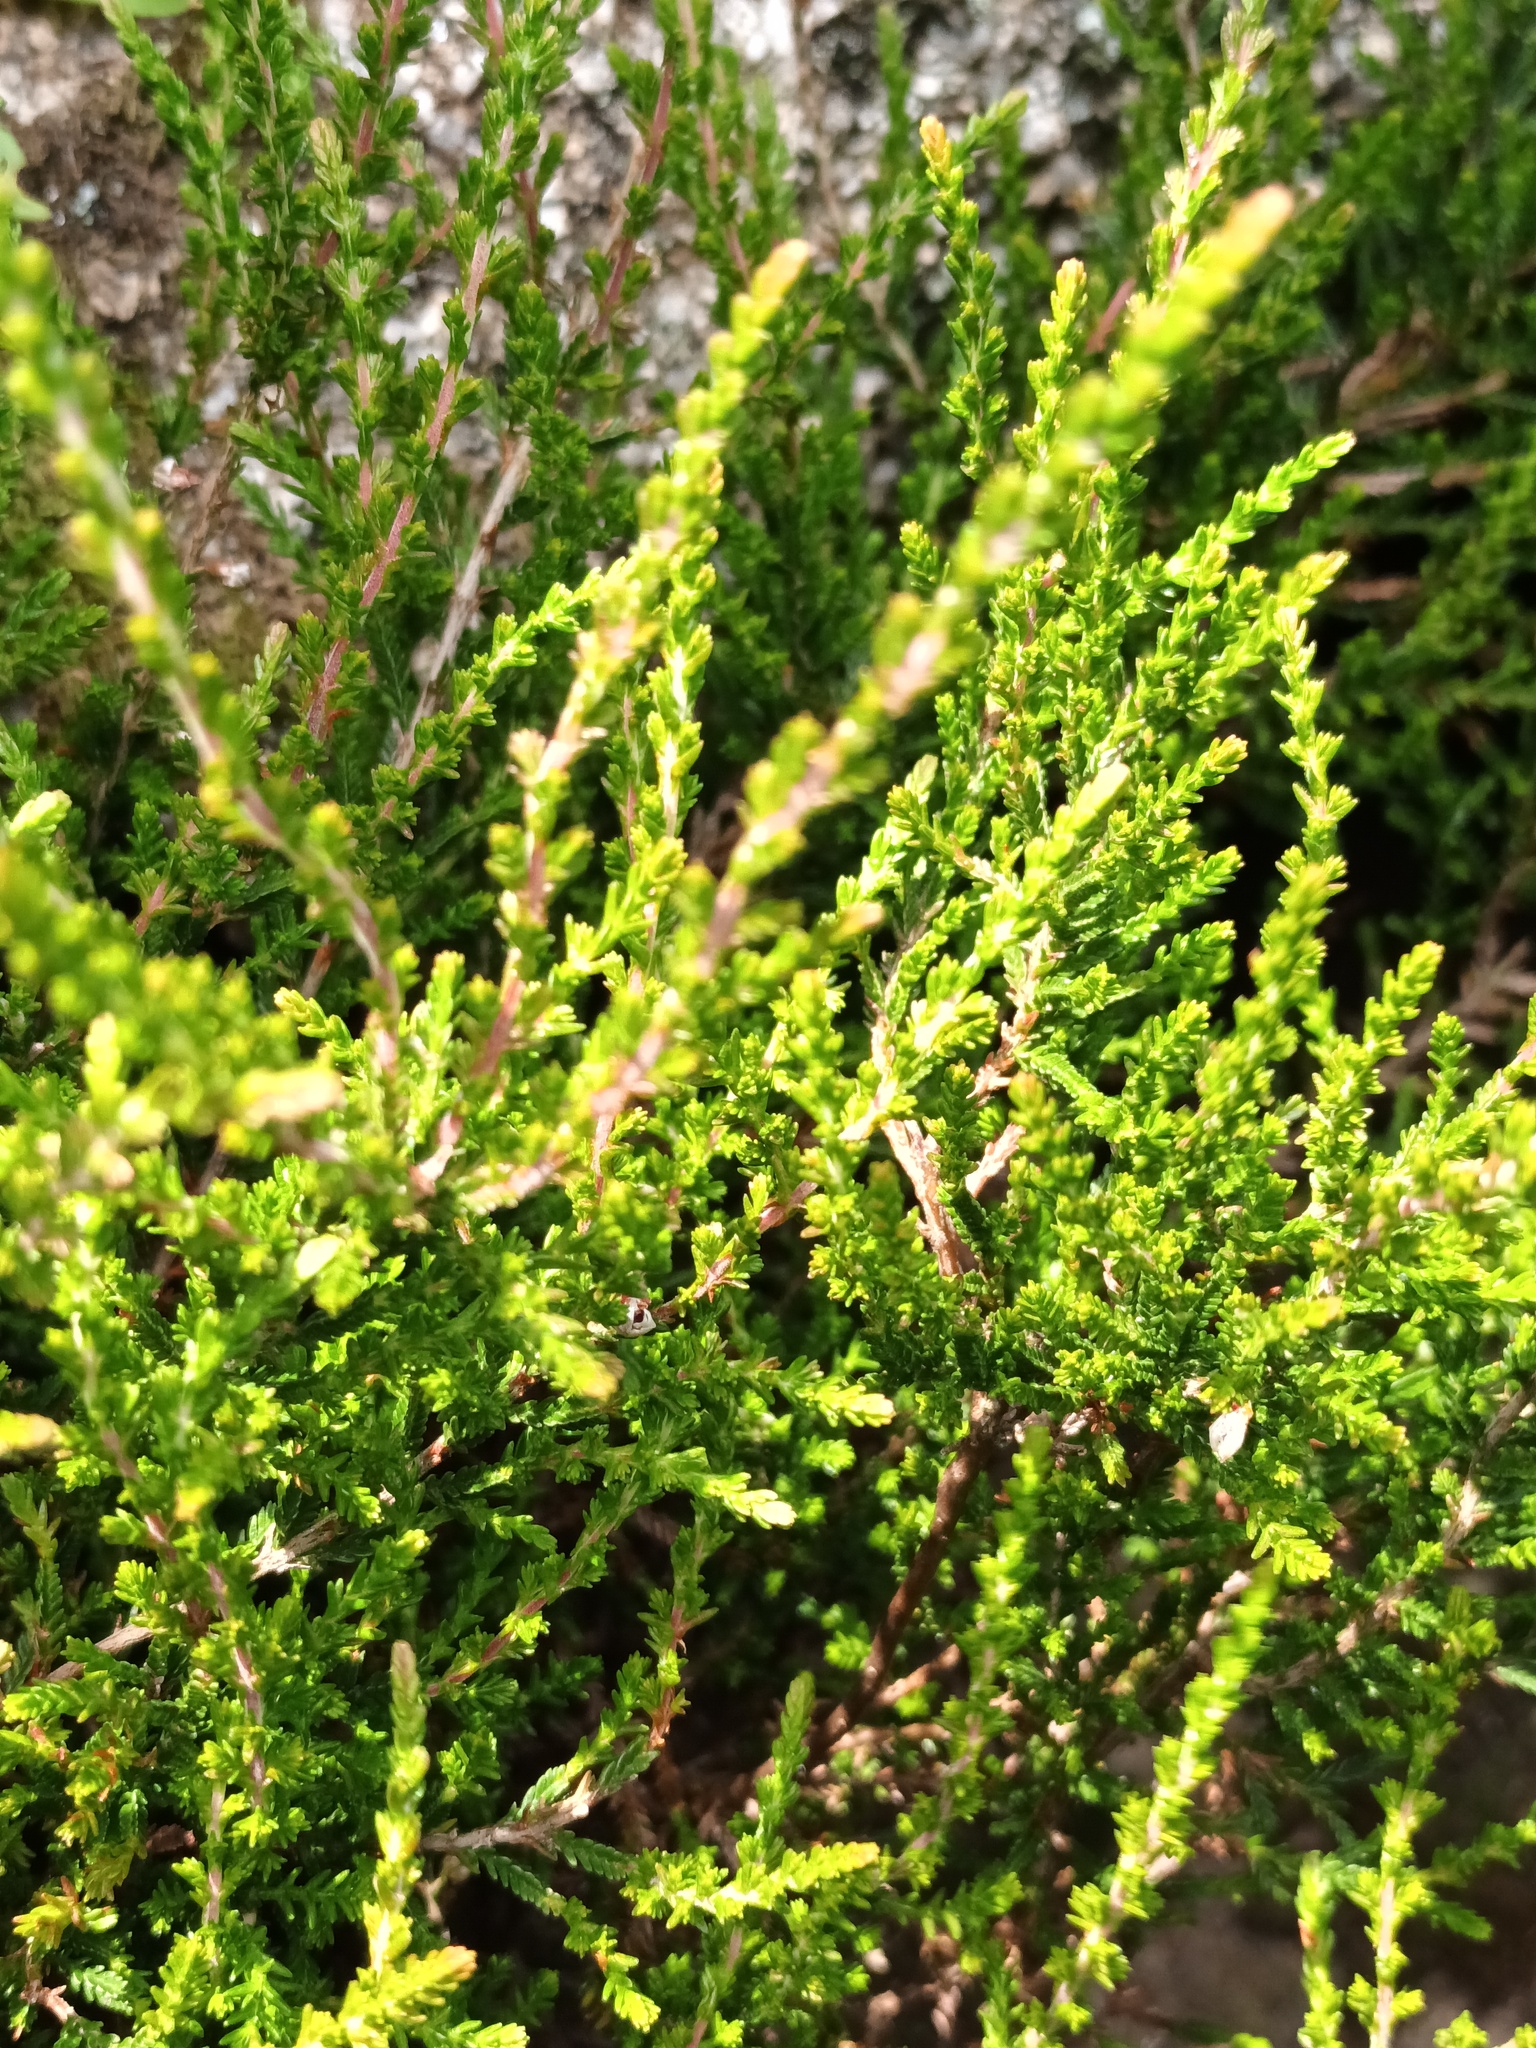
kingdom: Plantae
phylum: Tracheophyta
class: Magnoliopsida
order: Ericales
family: Ericaceae
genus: Calluna
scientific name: Calluna vulgaris
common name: Heather
